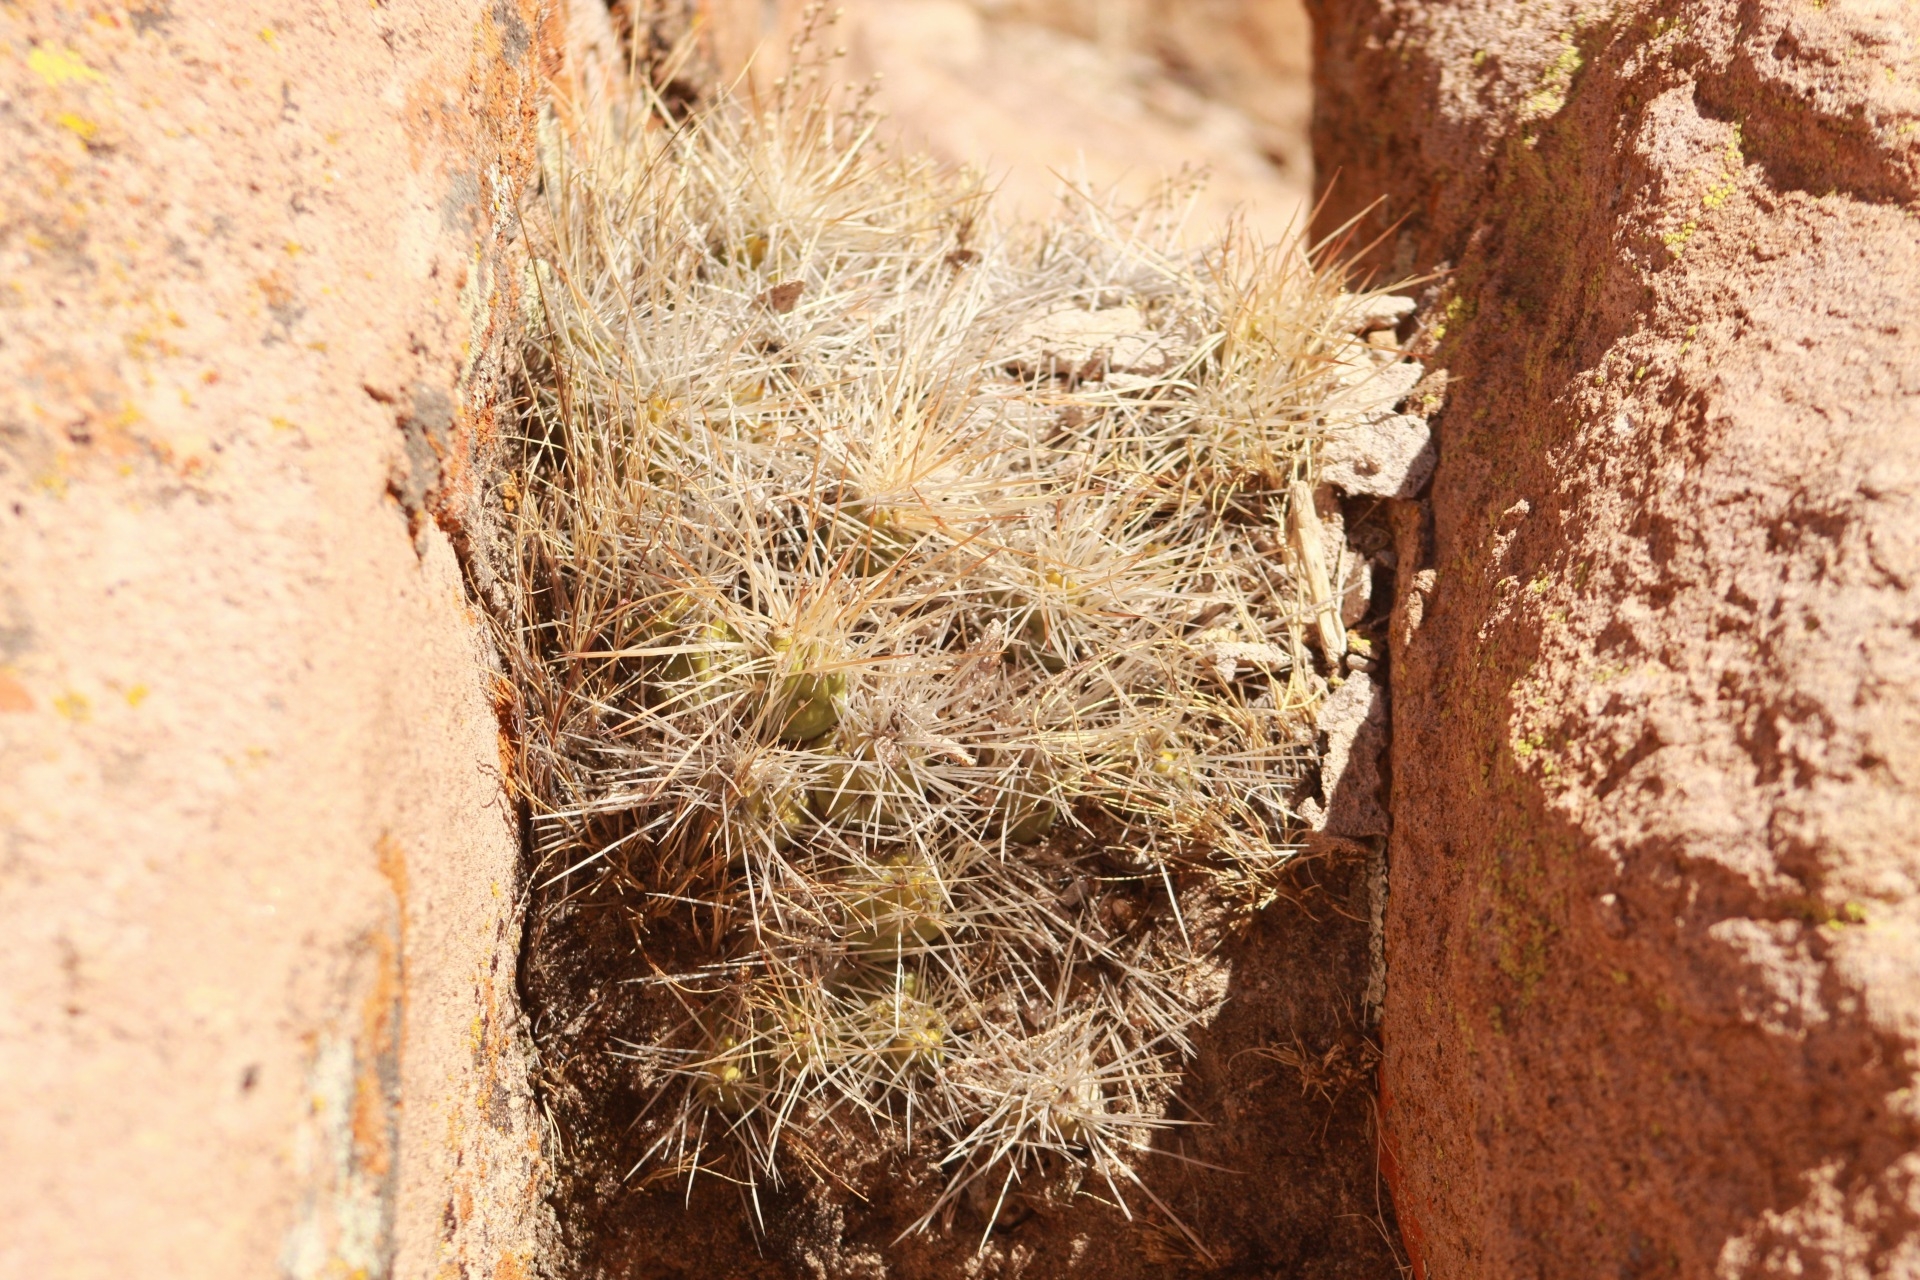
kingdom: Plantae
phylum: Tracheophyta
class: Magnoliopsida
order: Caryophyllales
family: Cactaceae
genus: Cumulopuntia
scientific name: Cumulopuntia chichensis
